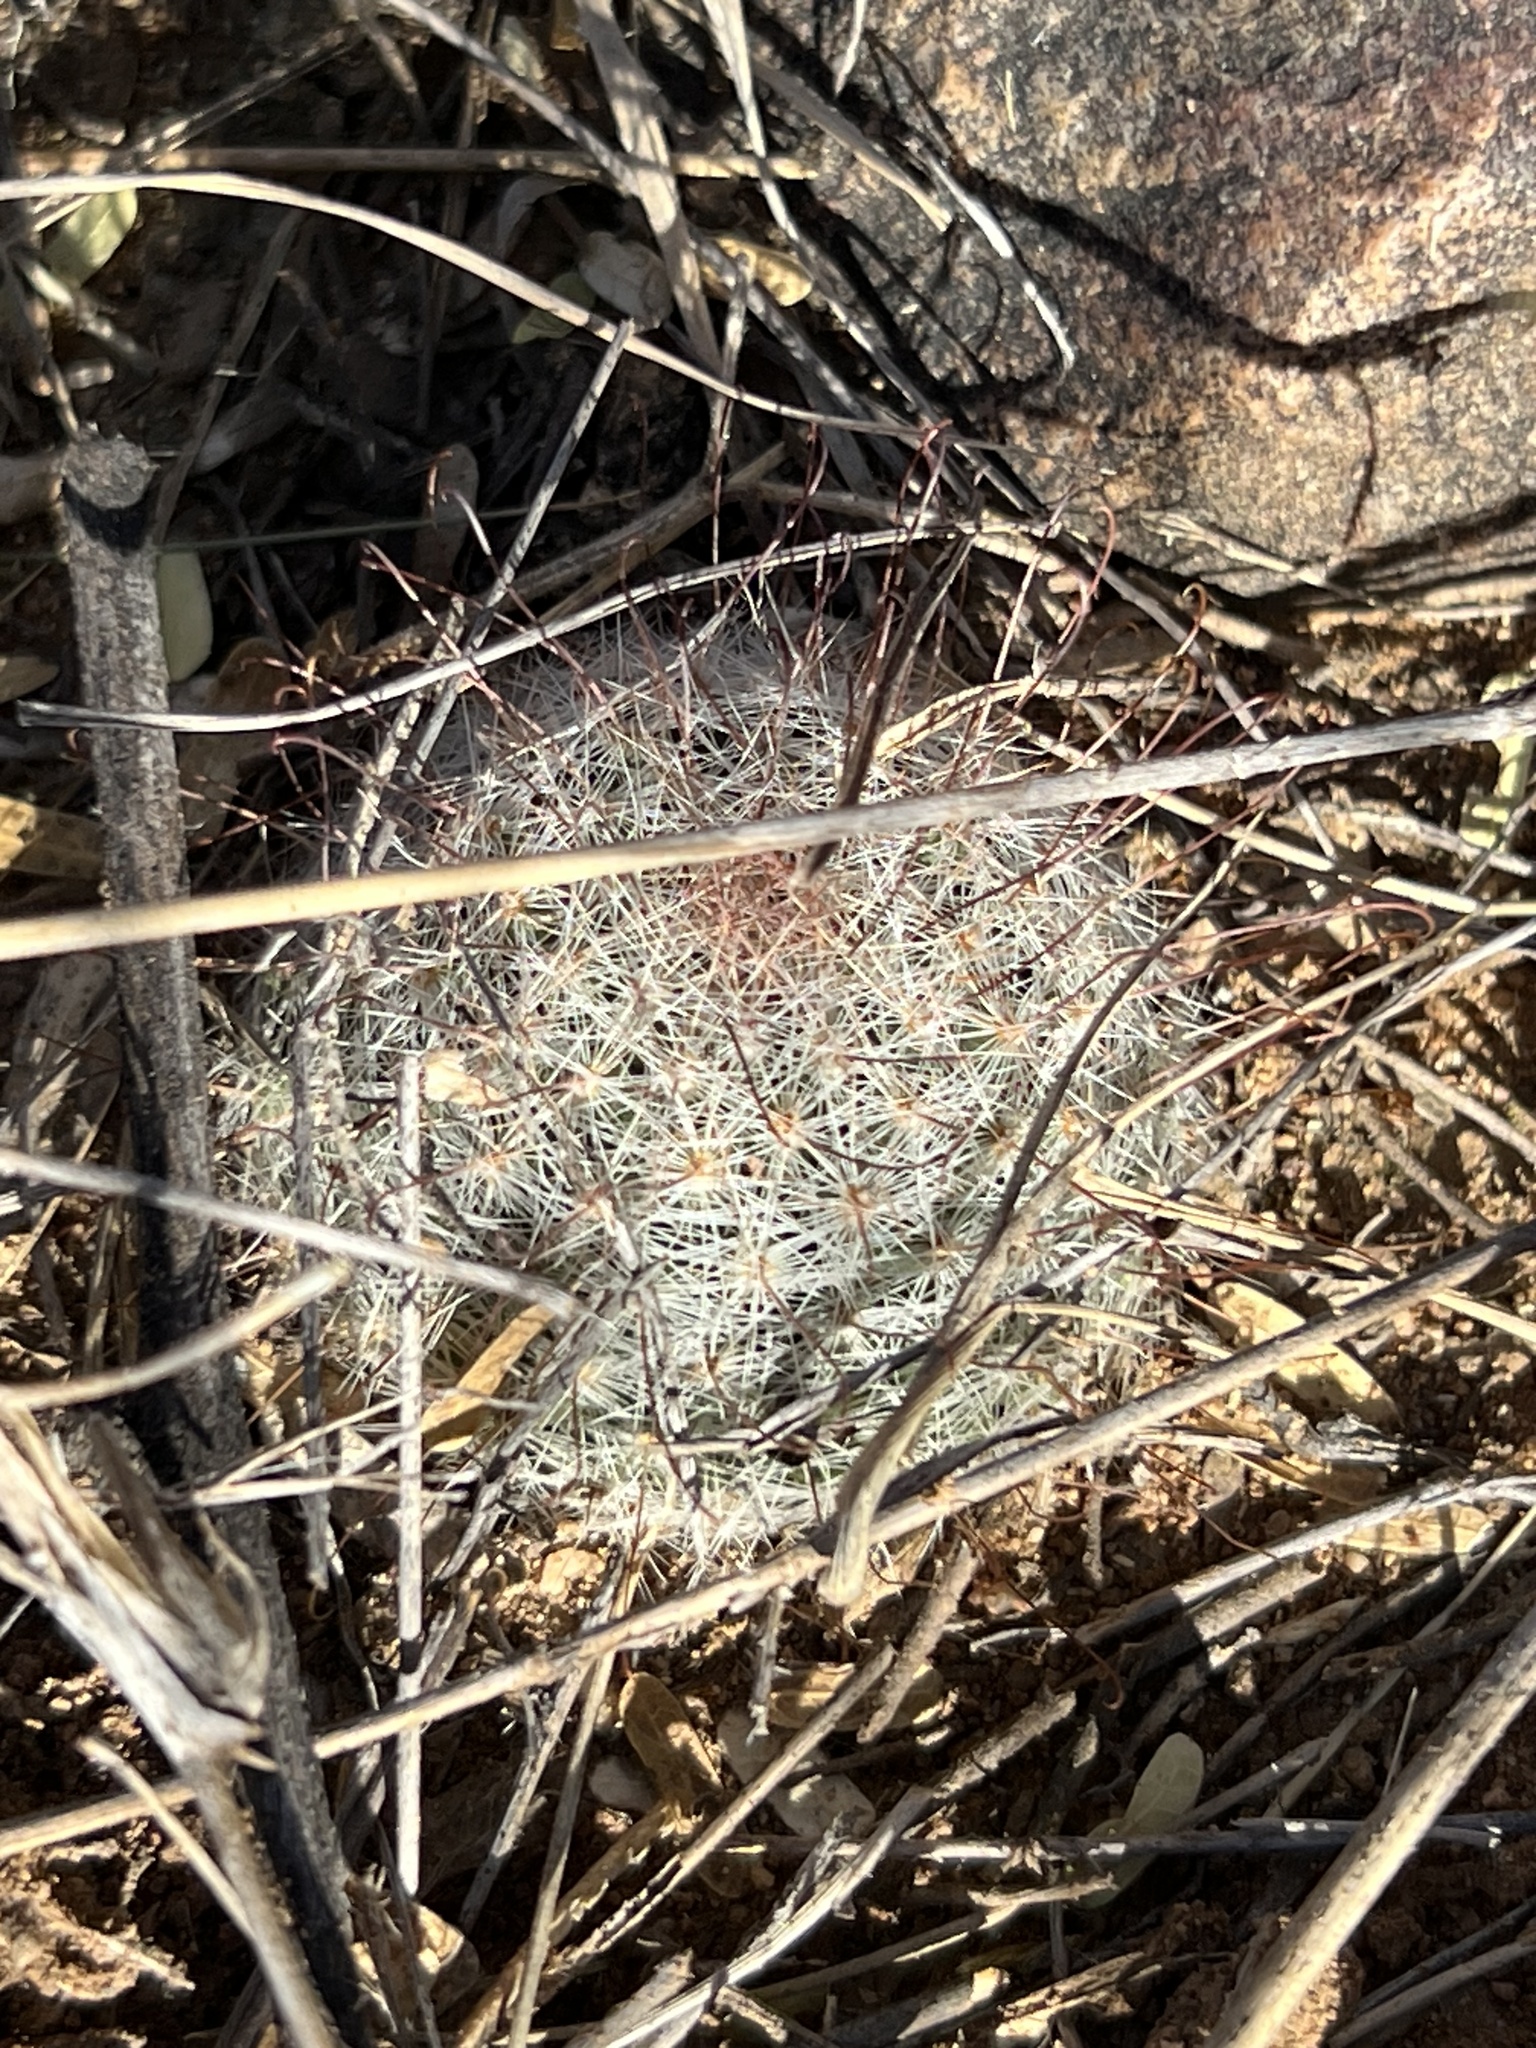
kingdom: Plantae
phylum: Tracheophyta
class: Magnoliopsida
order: Caryophyllales
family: Cactaceae
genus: Cochemiea
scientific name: Cochemiea grahamii
